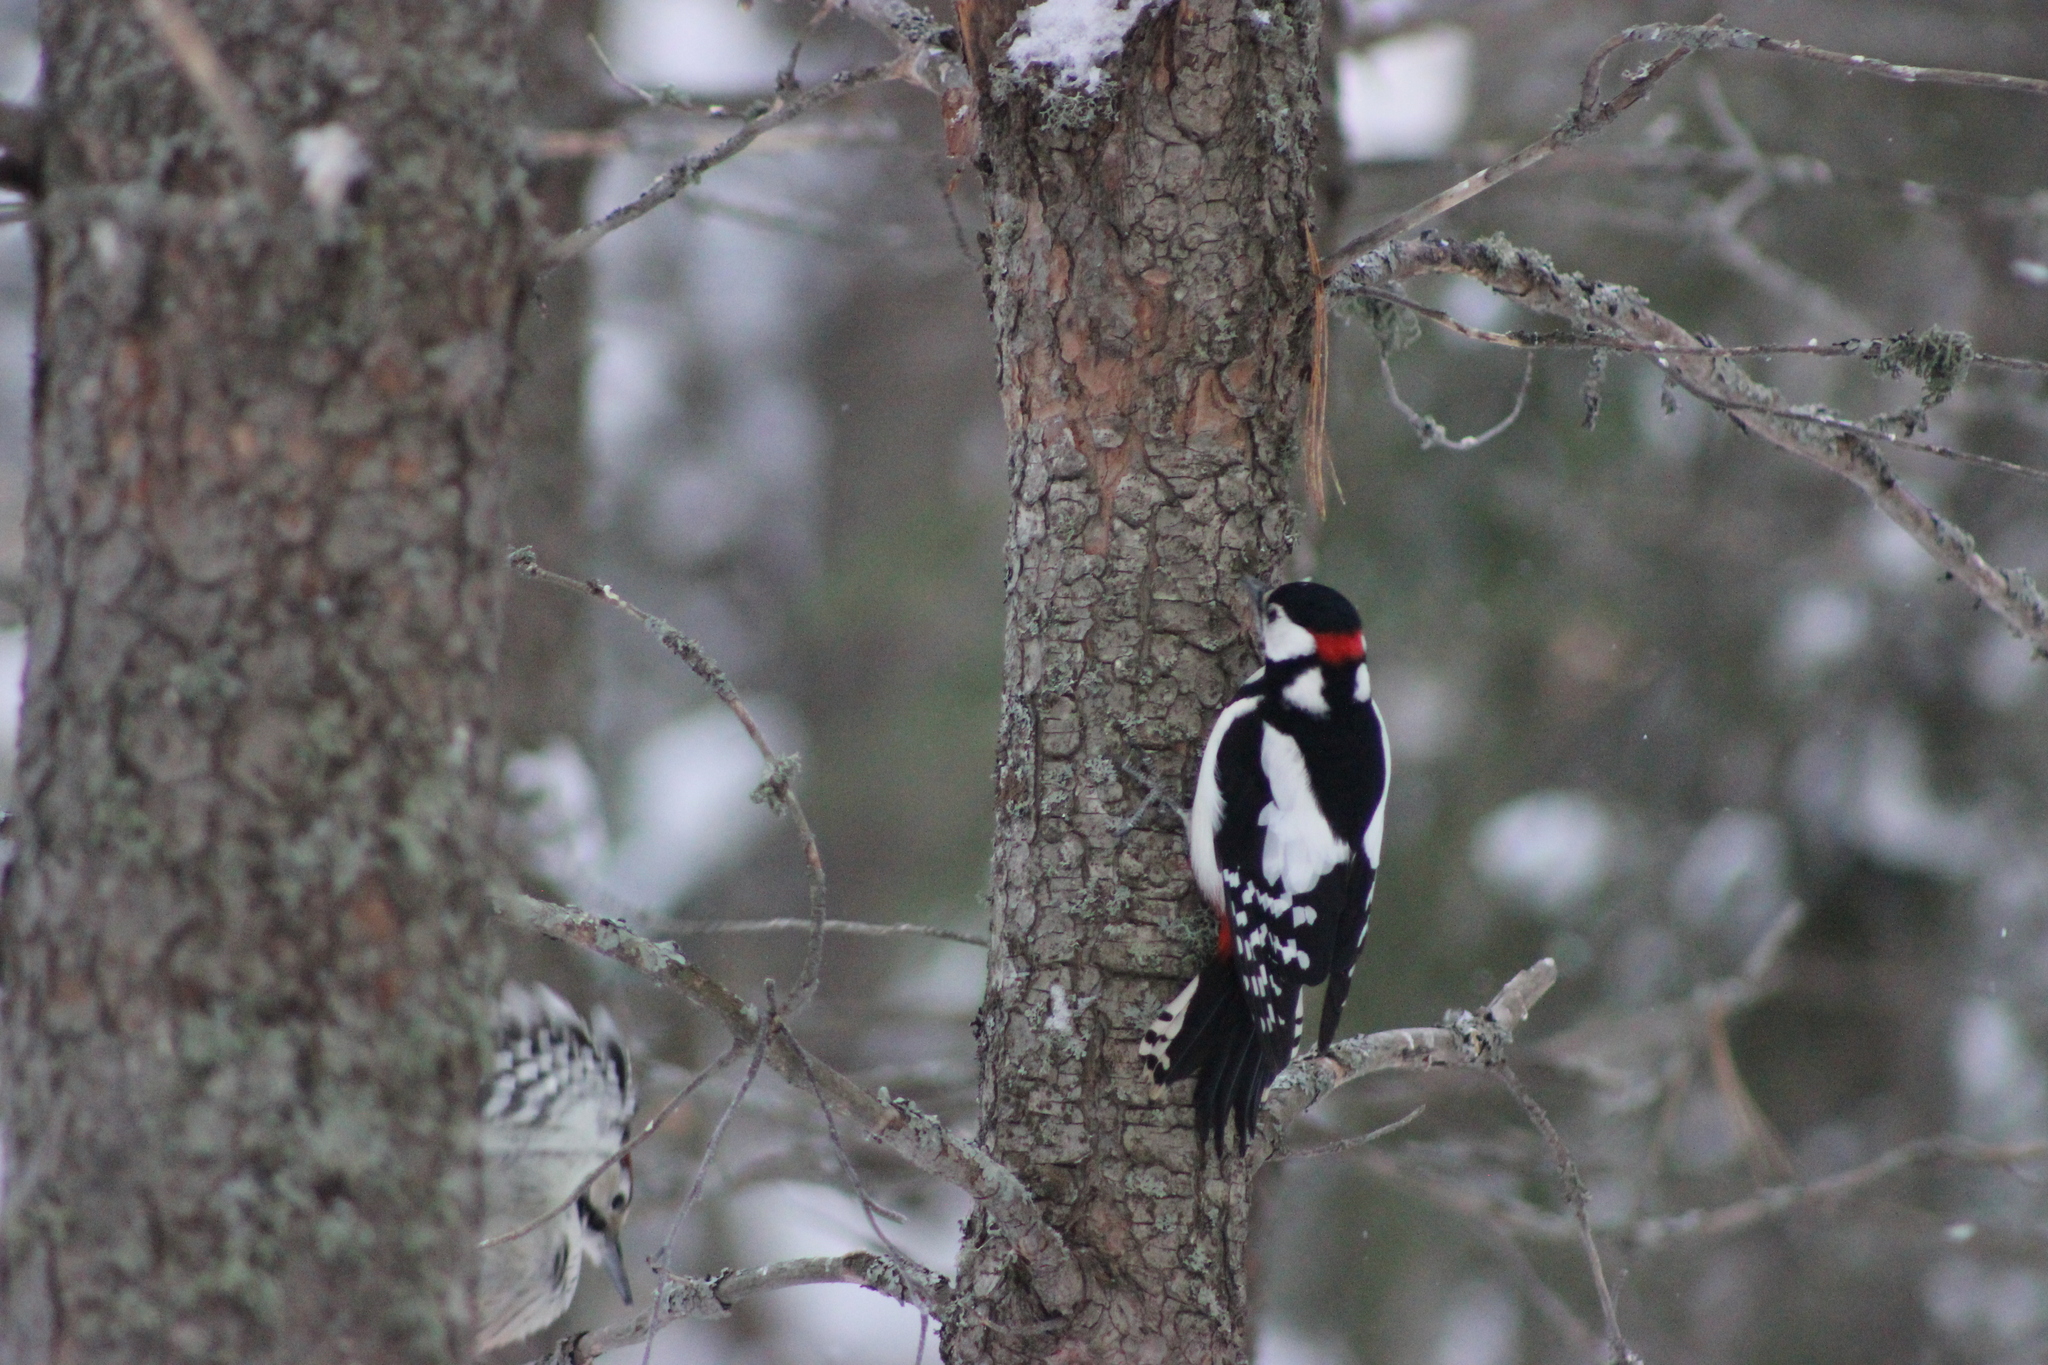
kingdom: Animalia
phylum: Chordata
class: Aves
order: Piciformes
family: Picidae
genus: Dendrocopos
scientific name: Dendrocopos major
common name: Great spotted woodpecker
